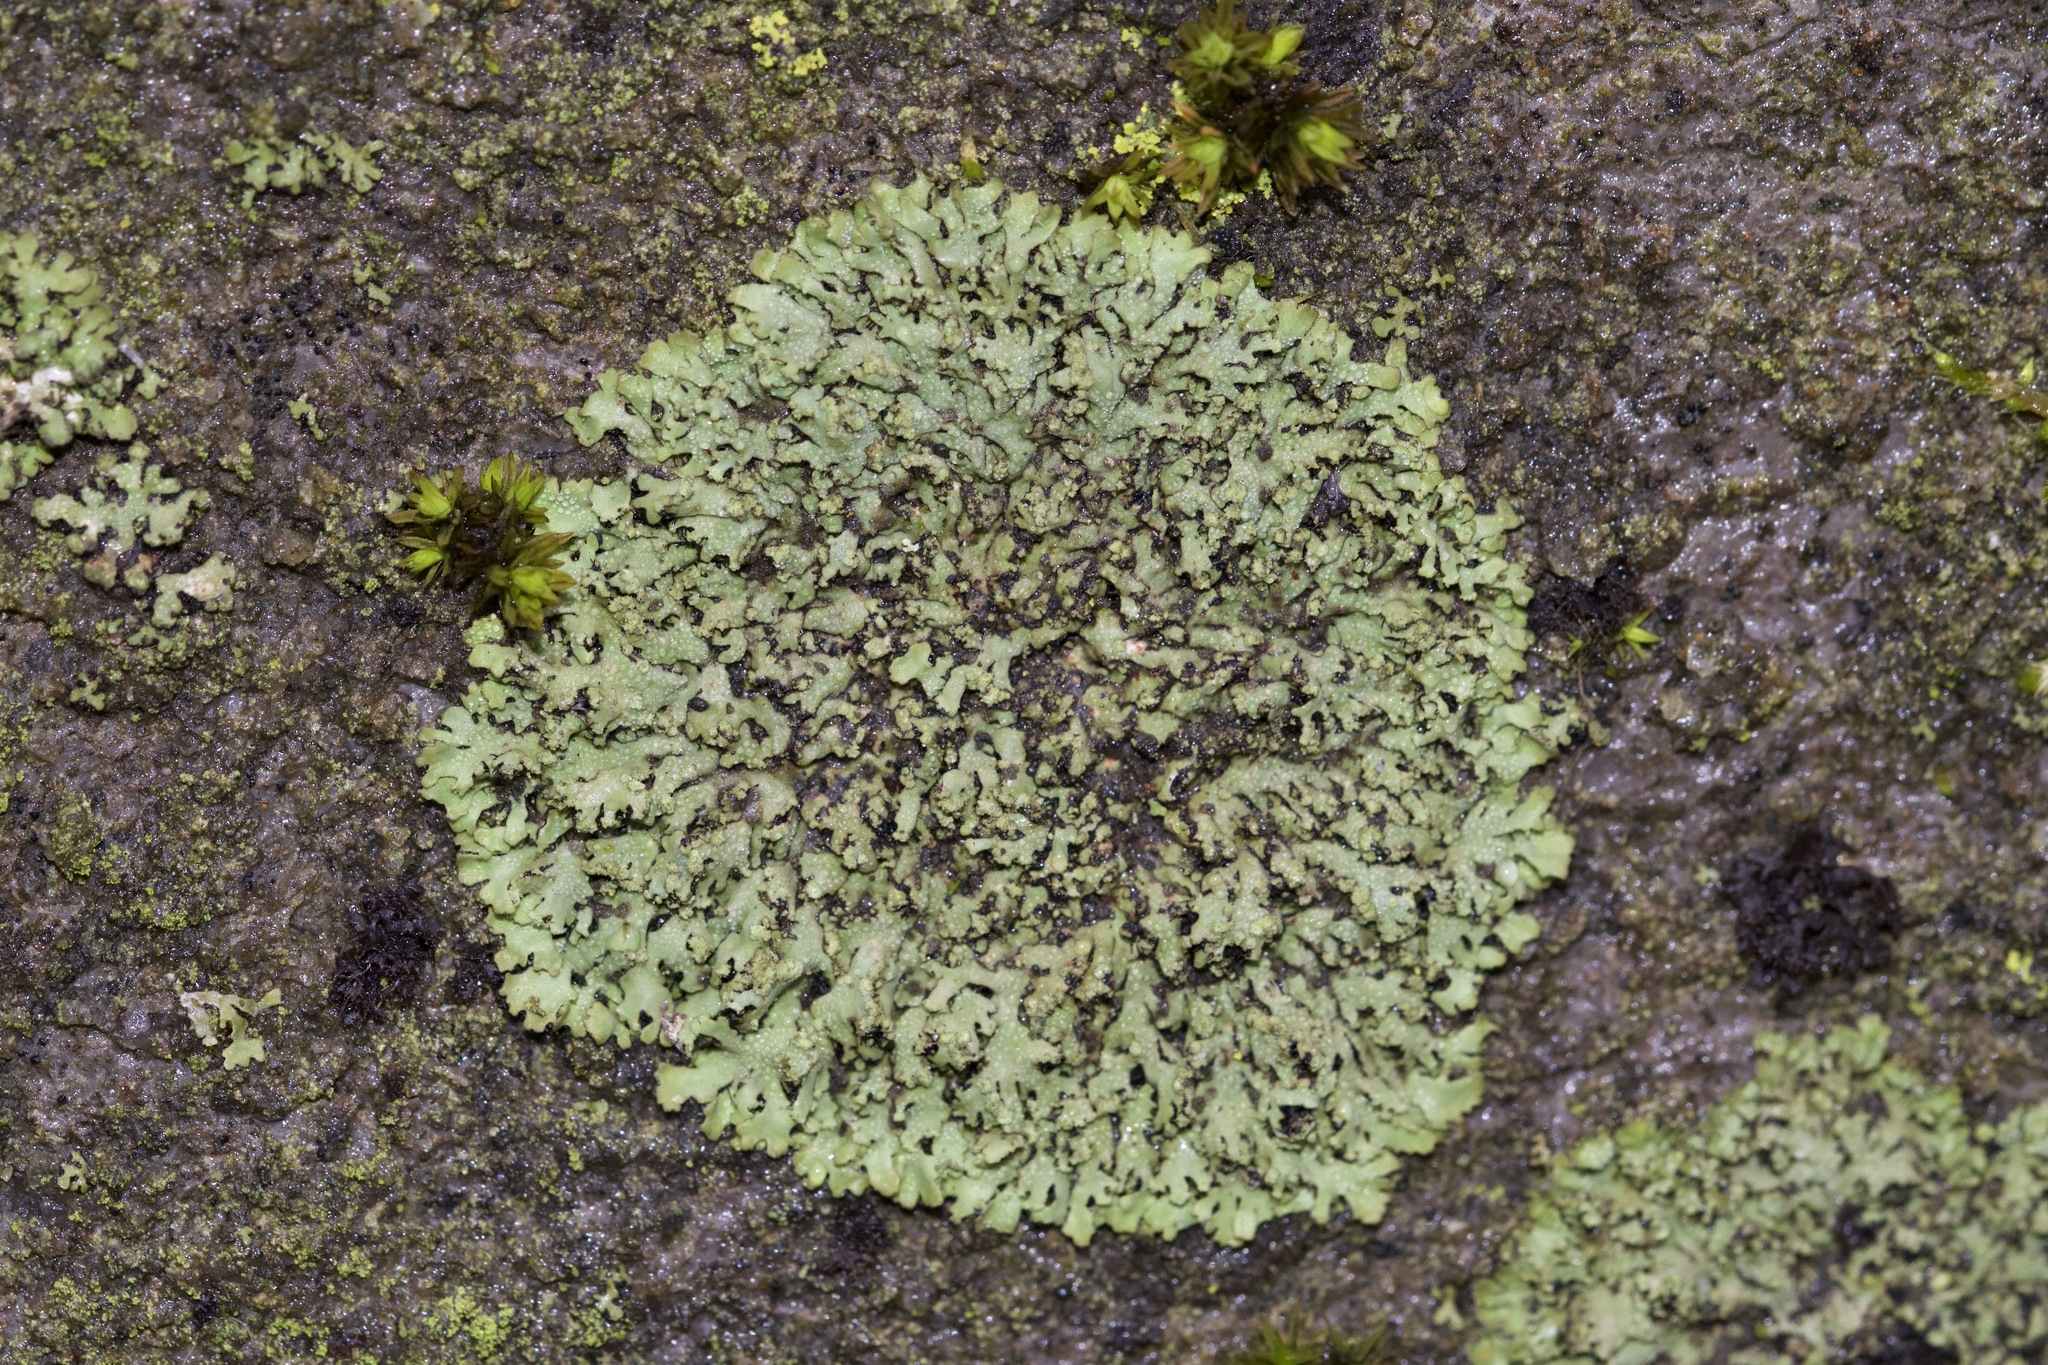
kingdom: Fungi
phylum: Ascomycota
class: Lecanoromycetes
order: Caliciales
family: Physciaceae
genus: Phaeophyscia
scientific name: Phaeophyscia adiastola
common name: Powder-tipped shadow lichen
